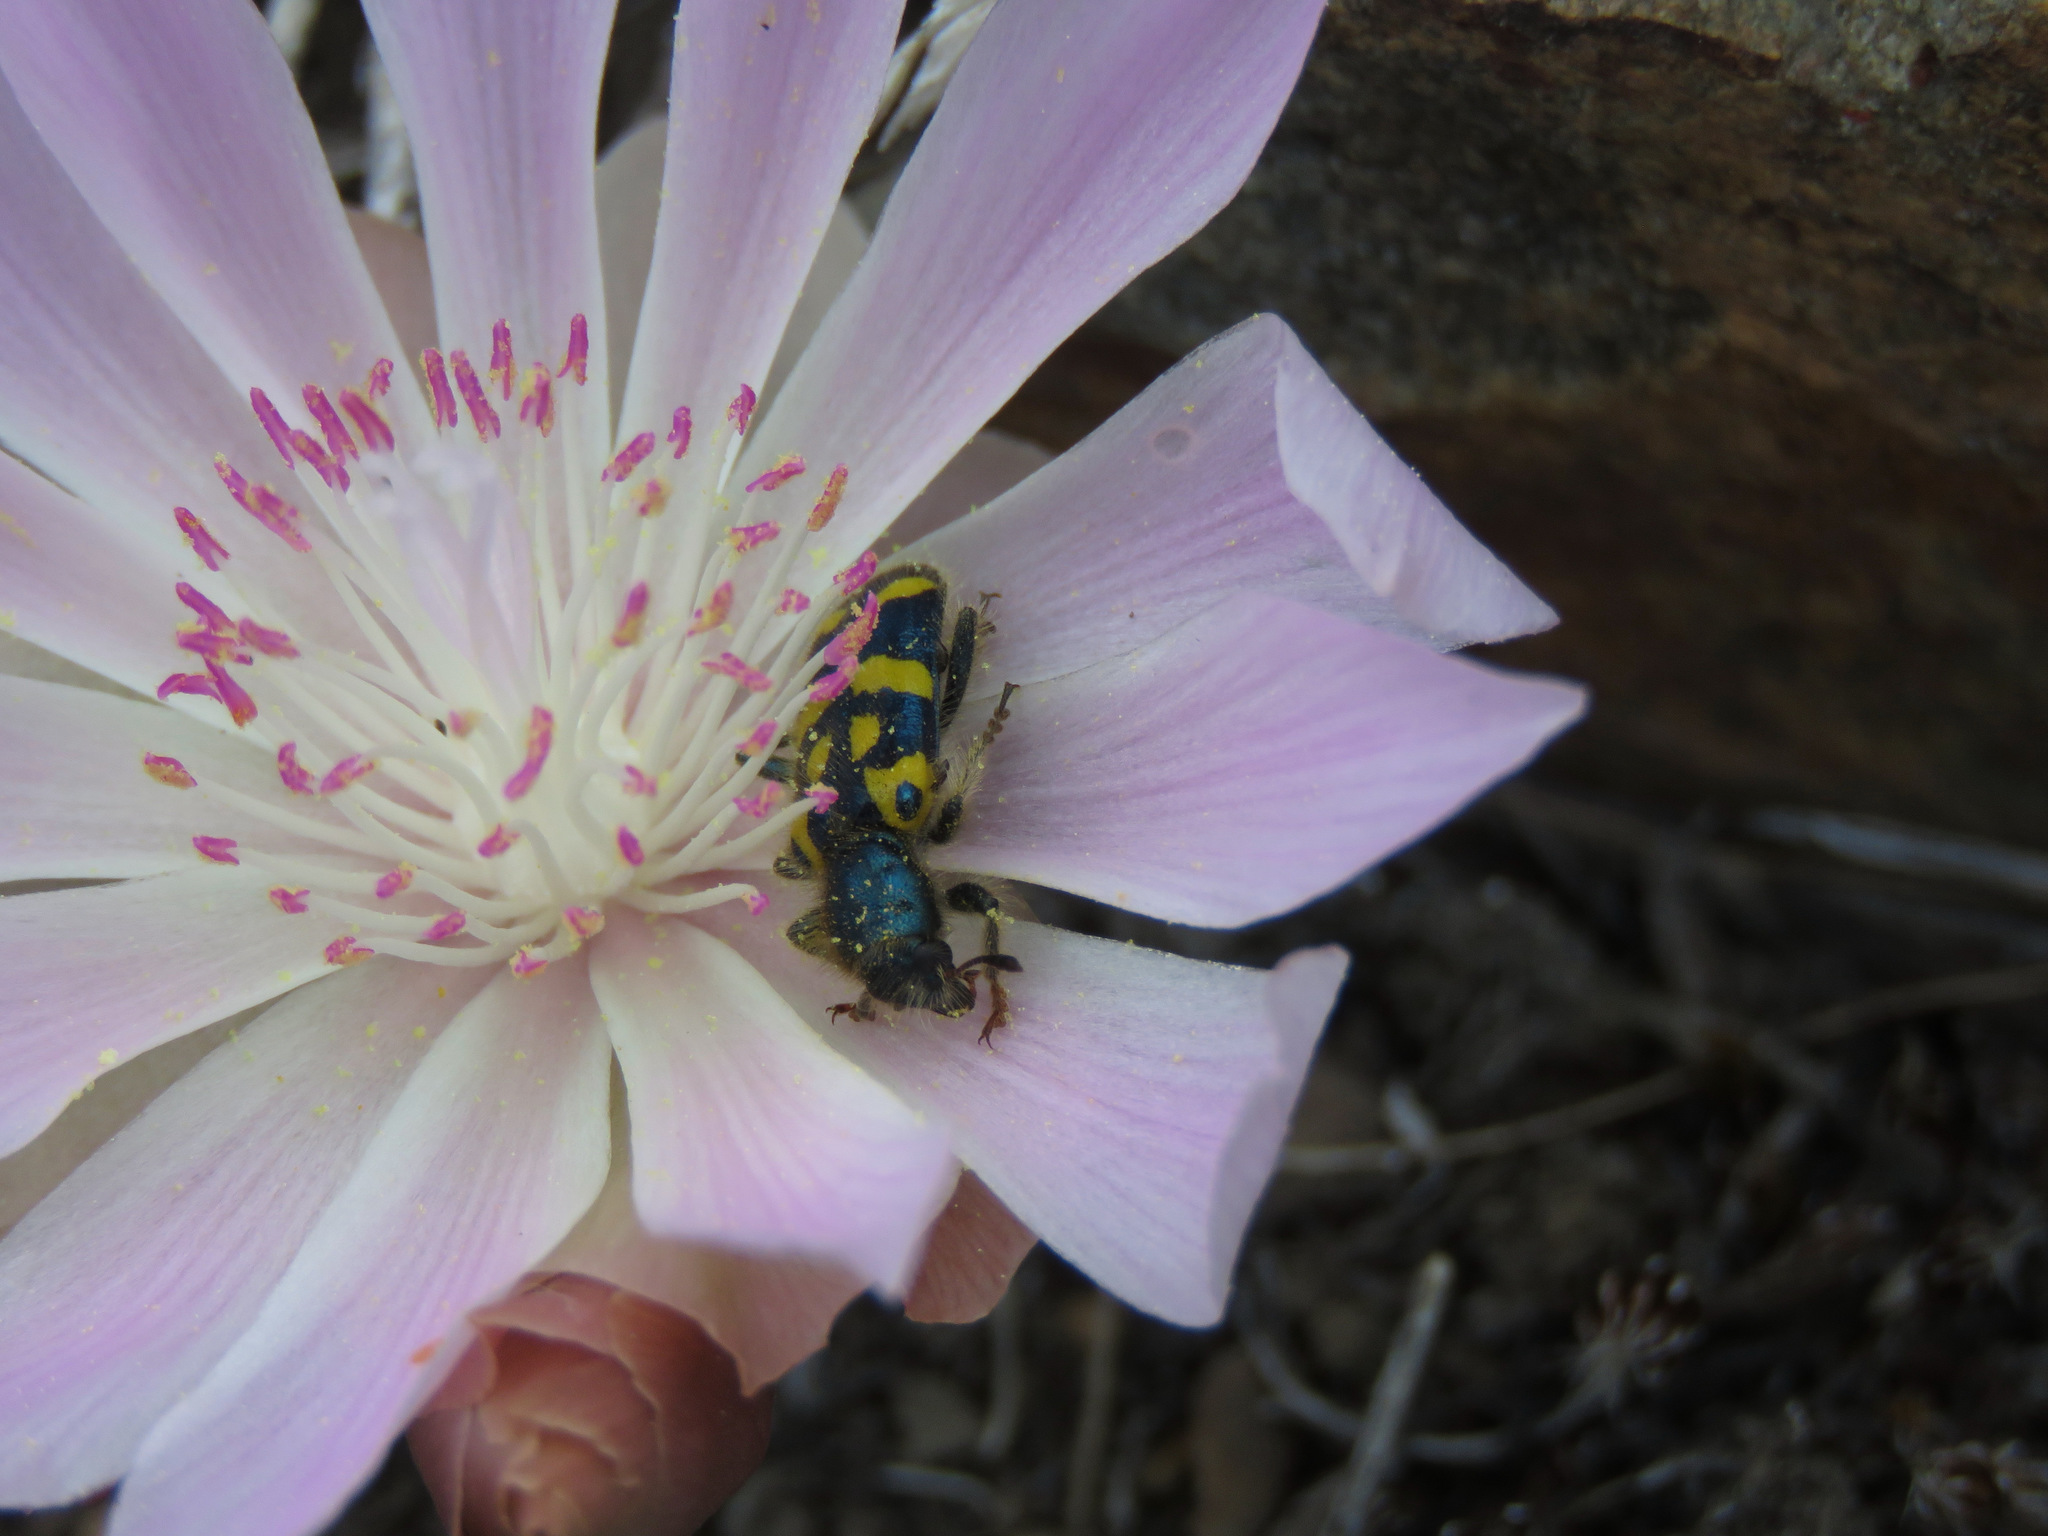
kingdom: Animalia
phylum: Arthropoda
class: Insecta
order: Coleoptera
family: Cleridae
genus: Trichodes
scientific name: Trichodes ornatus
